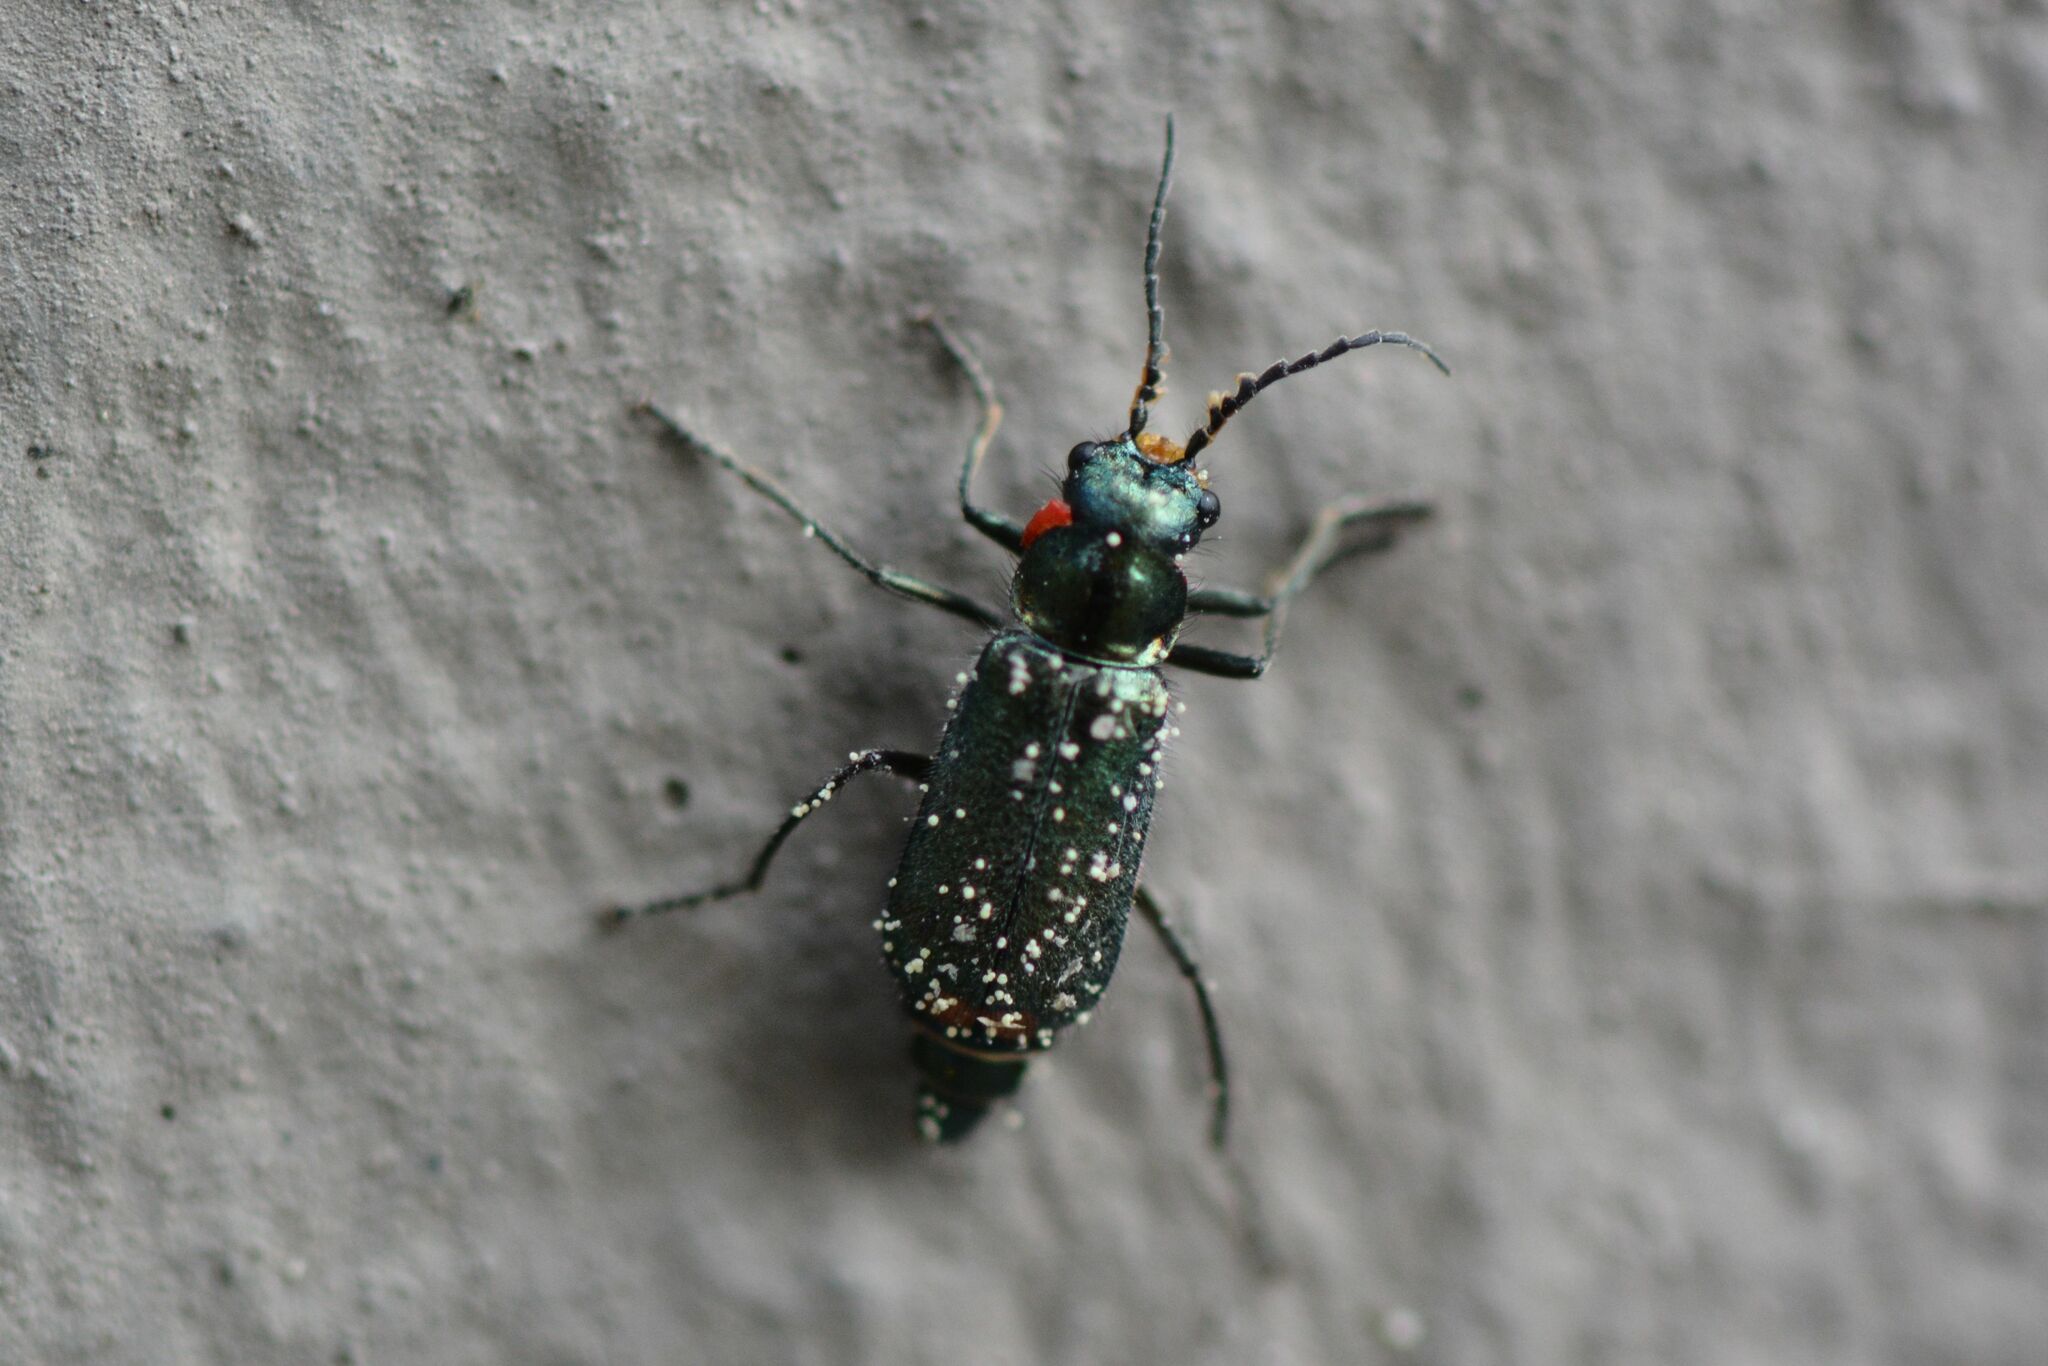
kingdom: Animalia
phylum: Arthropoda
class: Insecta
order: Coleoptera
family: Melyridae
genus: Malachius
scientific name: Malachius bipustulatus
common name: Malachite beetle
